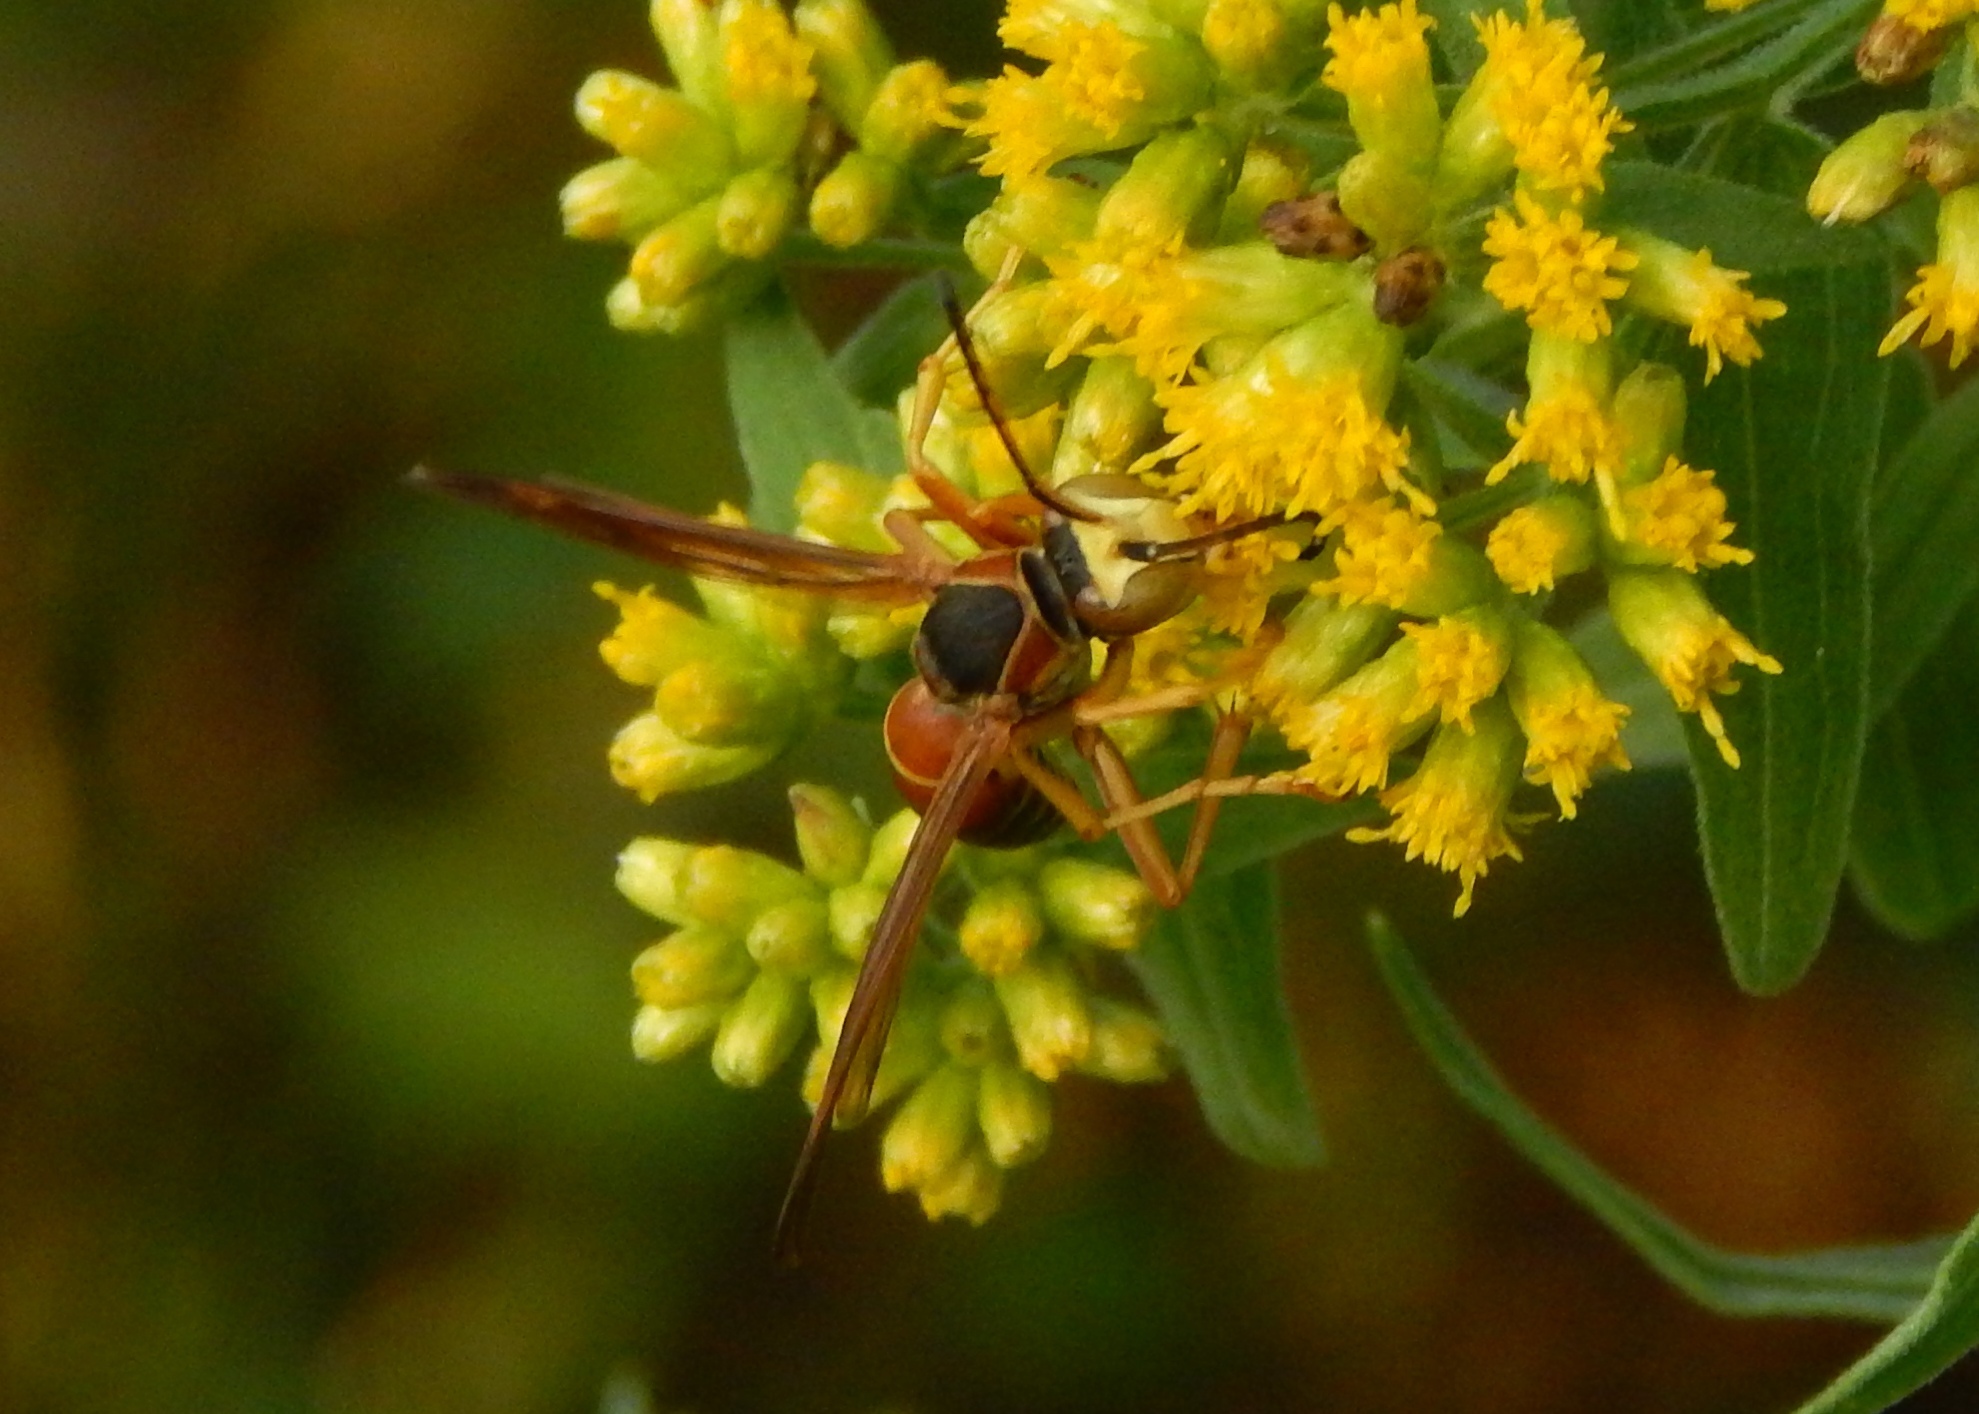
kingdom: Animalia
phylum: Arthropoda
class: Insecta
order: Hymenoptera
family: Vespidae
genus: Fuscopolistes
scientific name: Fuscopolistes
